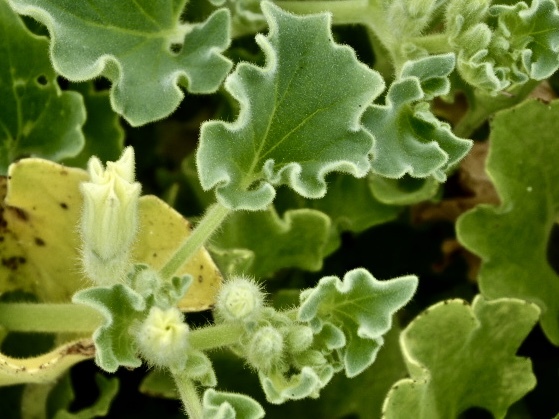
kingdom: Plantae
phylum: Tracheophyta
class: Magnoliopsida
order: Solanales
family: Solanaceae
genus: Exodeconus
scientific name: Exodeconus miersii
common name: Galapagos shore petunia
